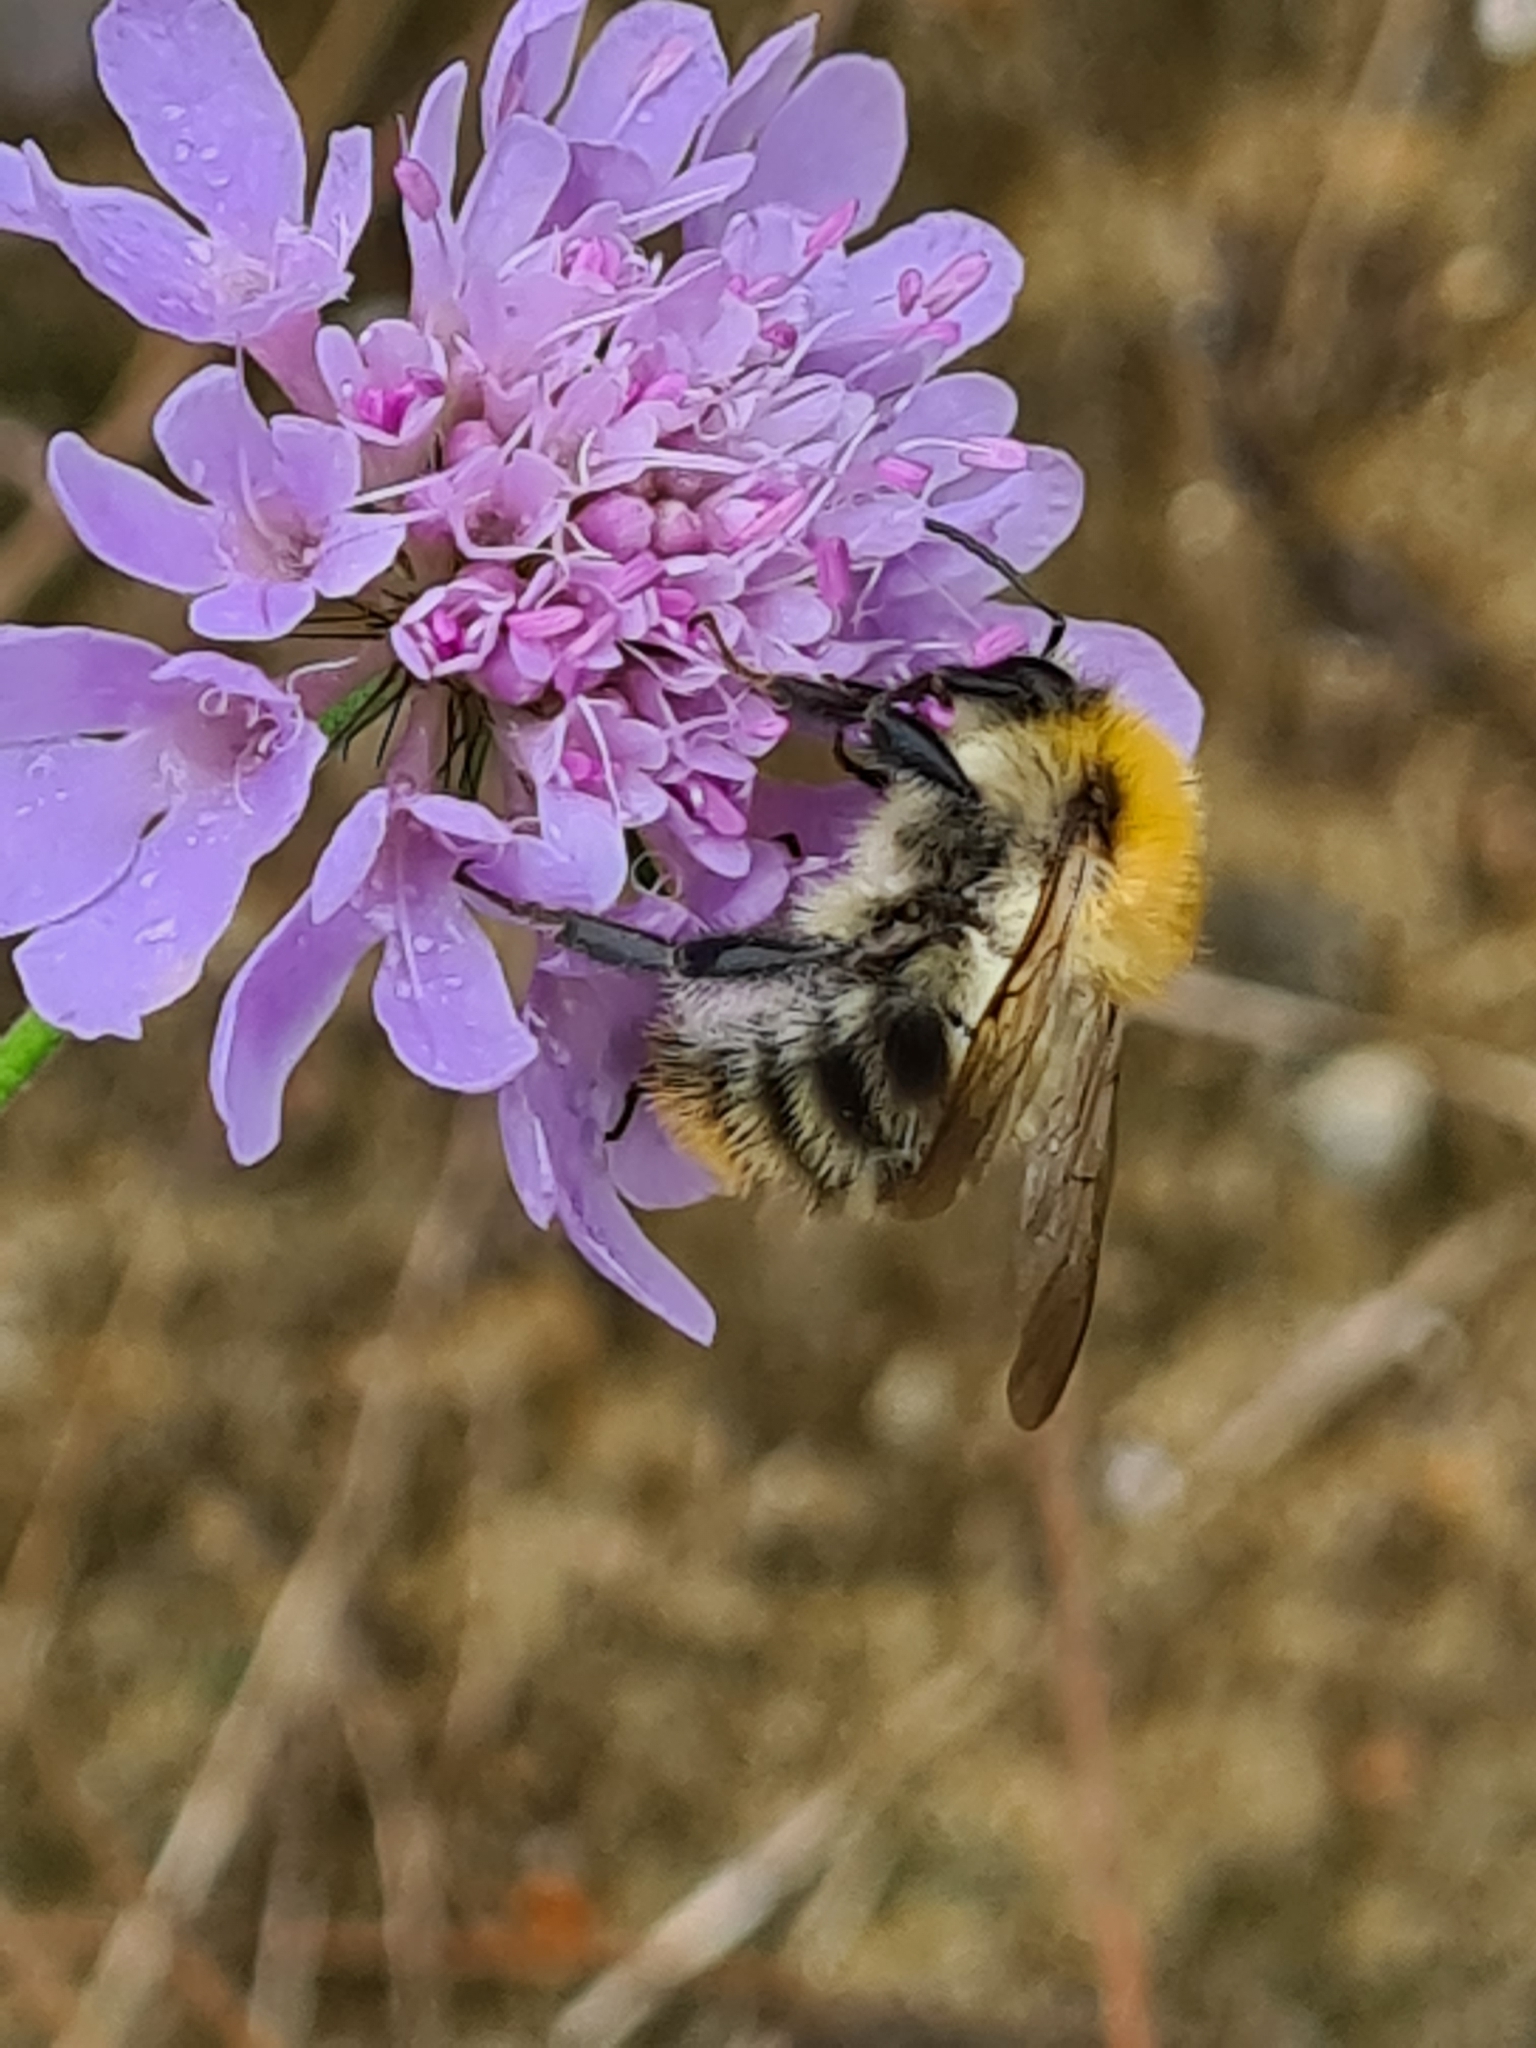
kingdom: Animalia
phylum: Arthropoda
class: Insecta
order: Hymenoptera
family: Apidae
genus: Bombus
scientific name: Bombus pascuorum
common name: Common carder bee
